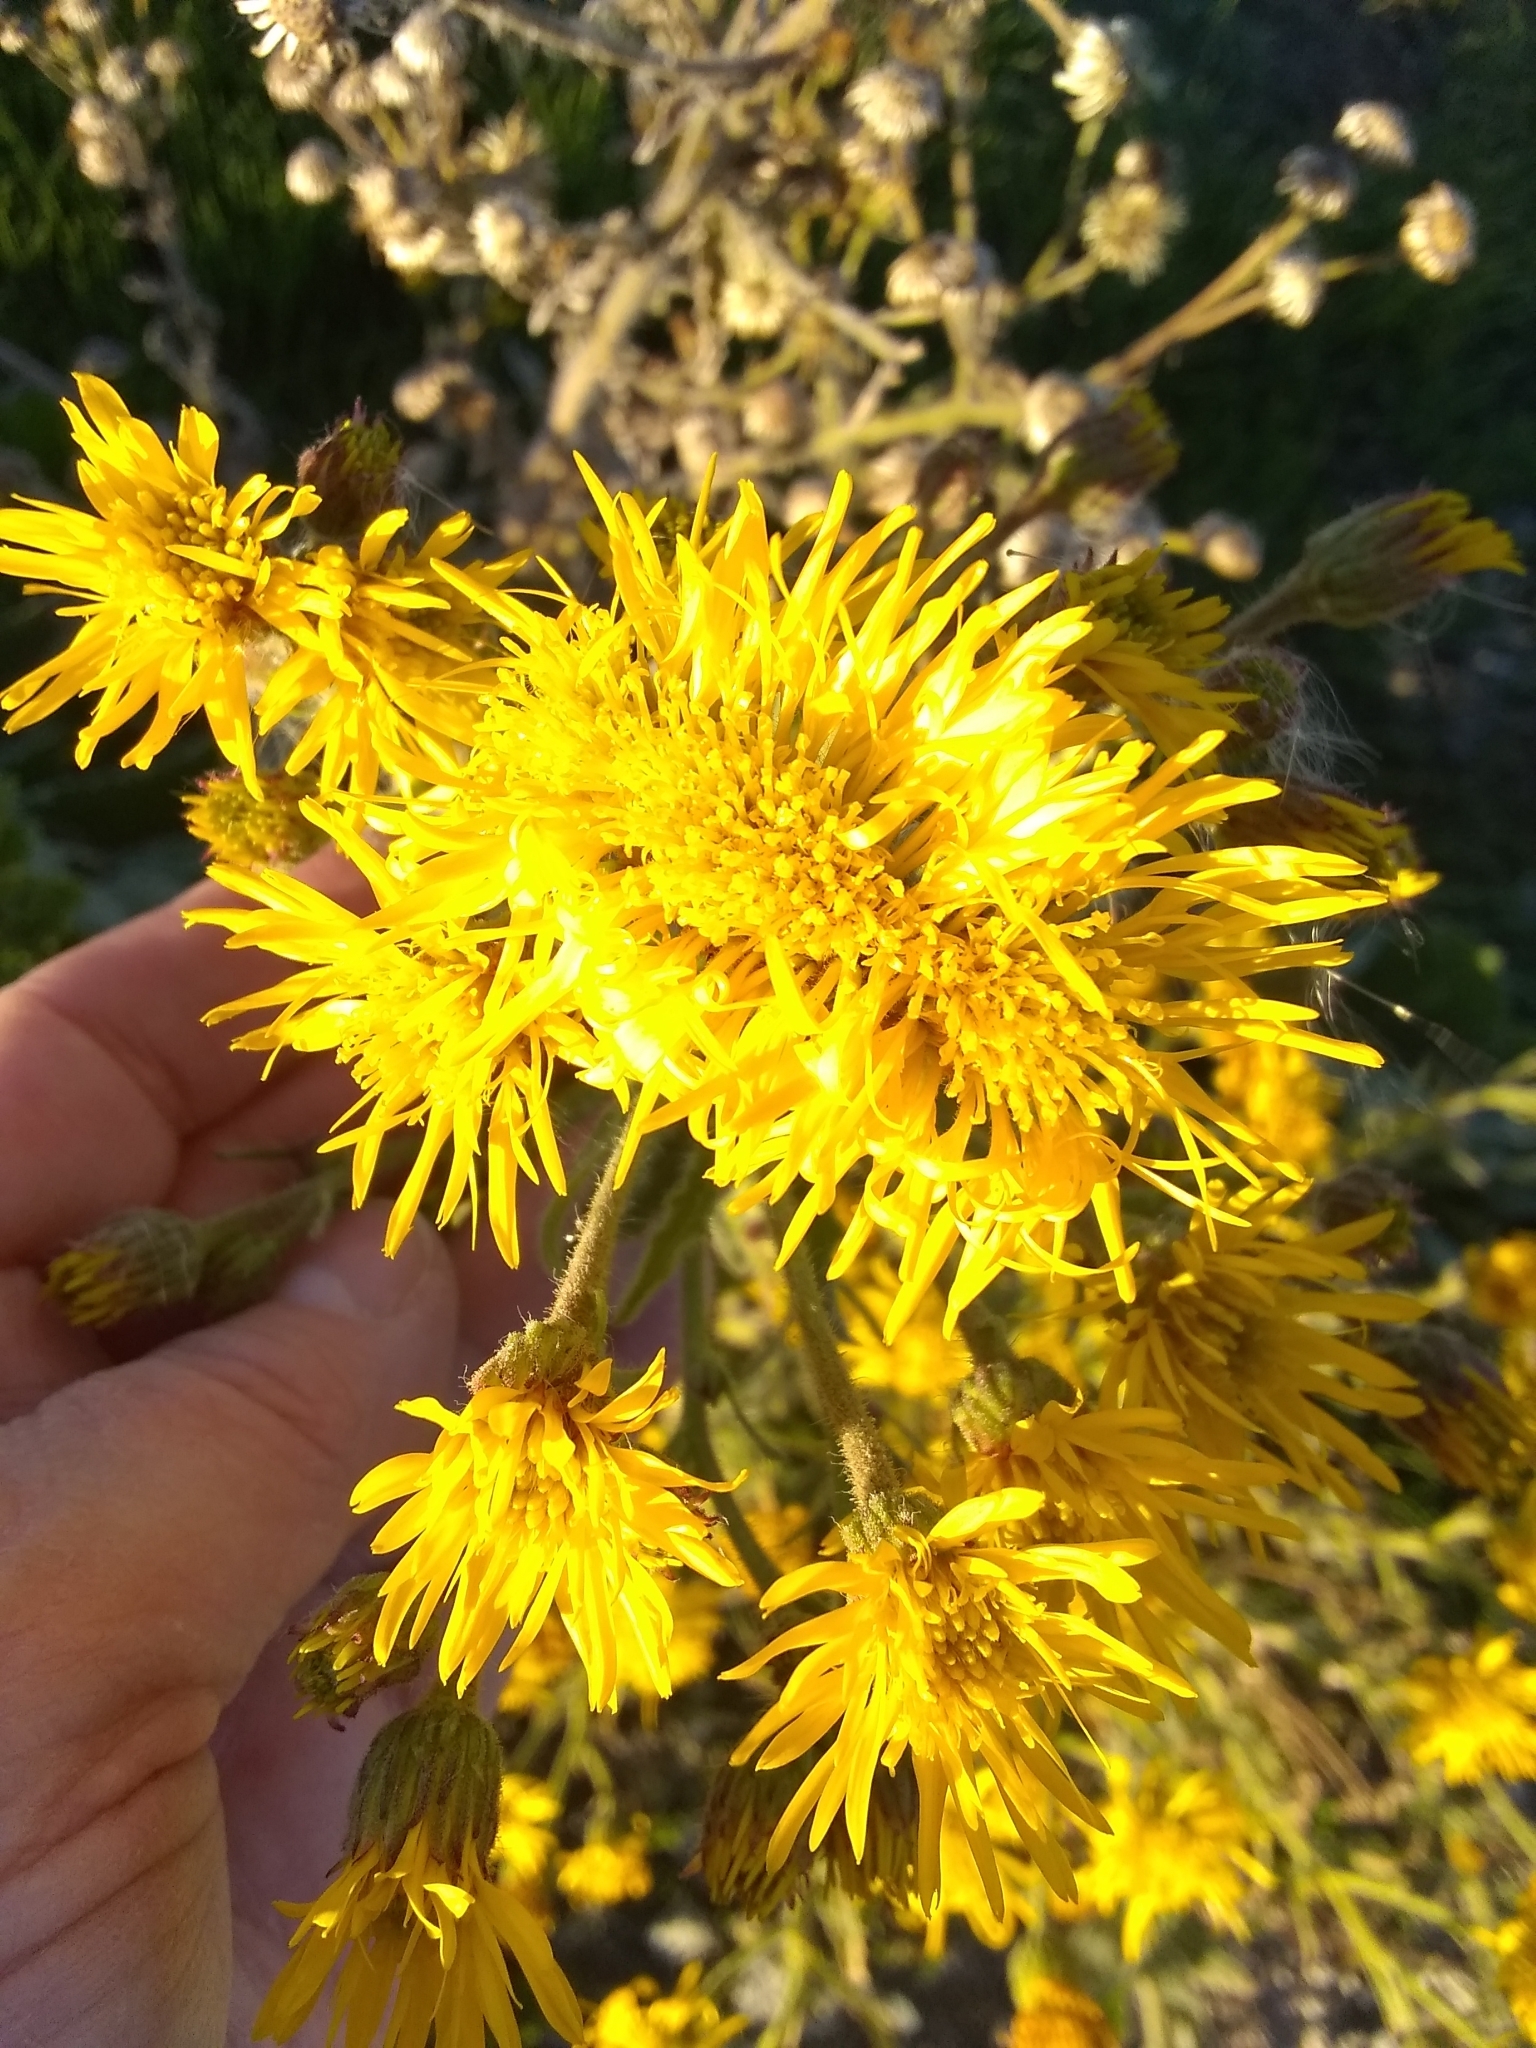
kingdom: Plantae
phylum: Tracheophyta
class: Magnoliopsida
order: Asterales
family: Asteraceae
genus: Heterotheca
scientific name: Heterotheca grandiflora
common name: Telegraphweed
